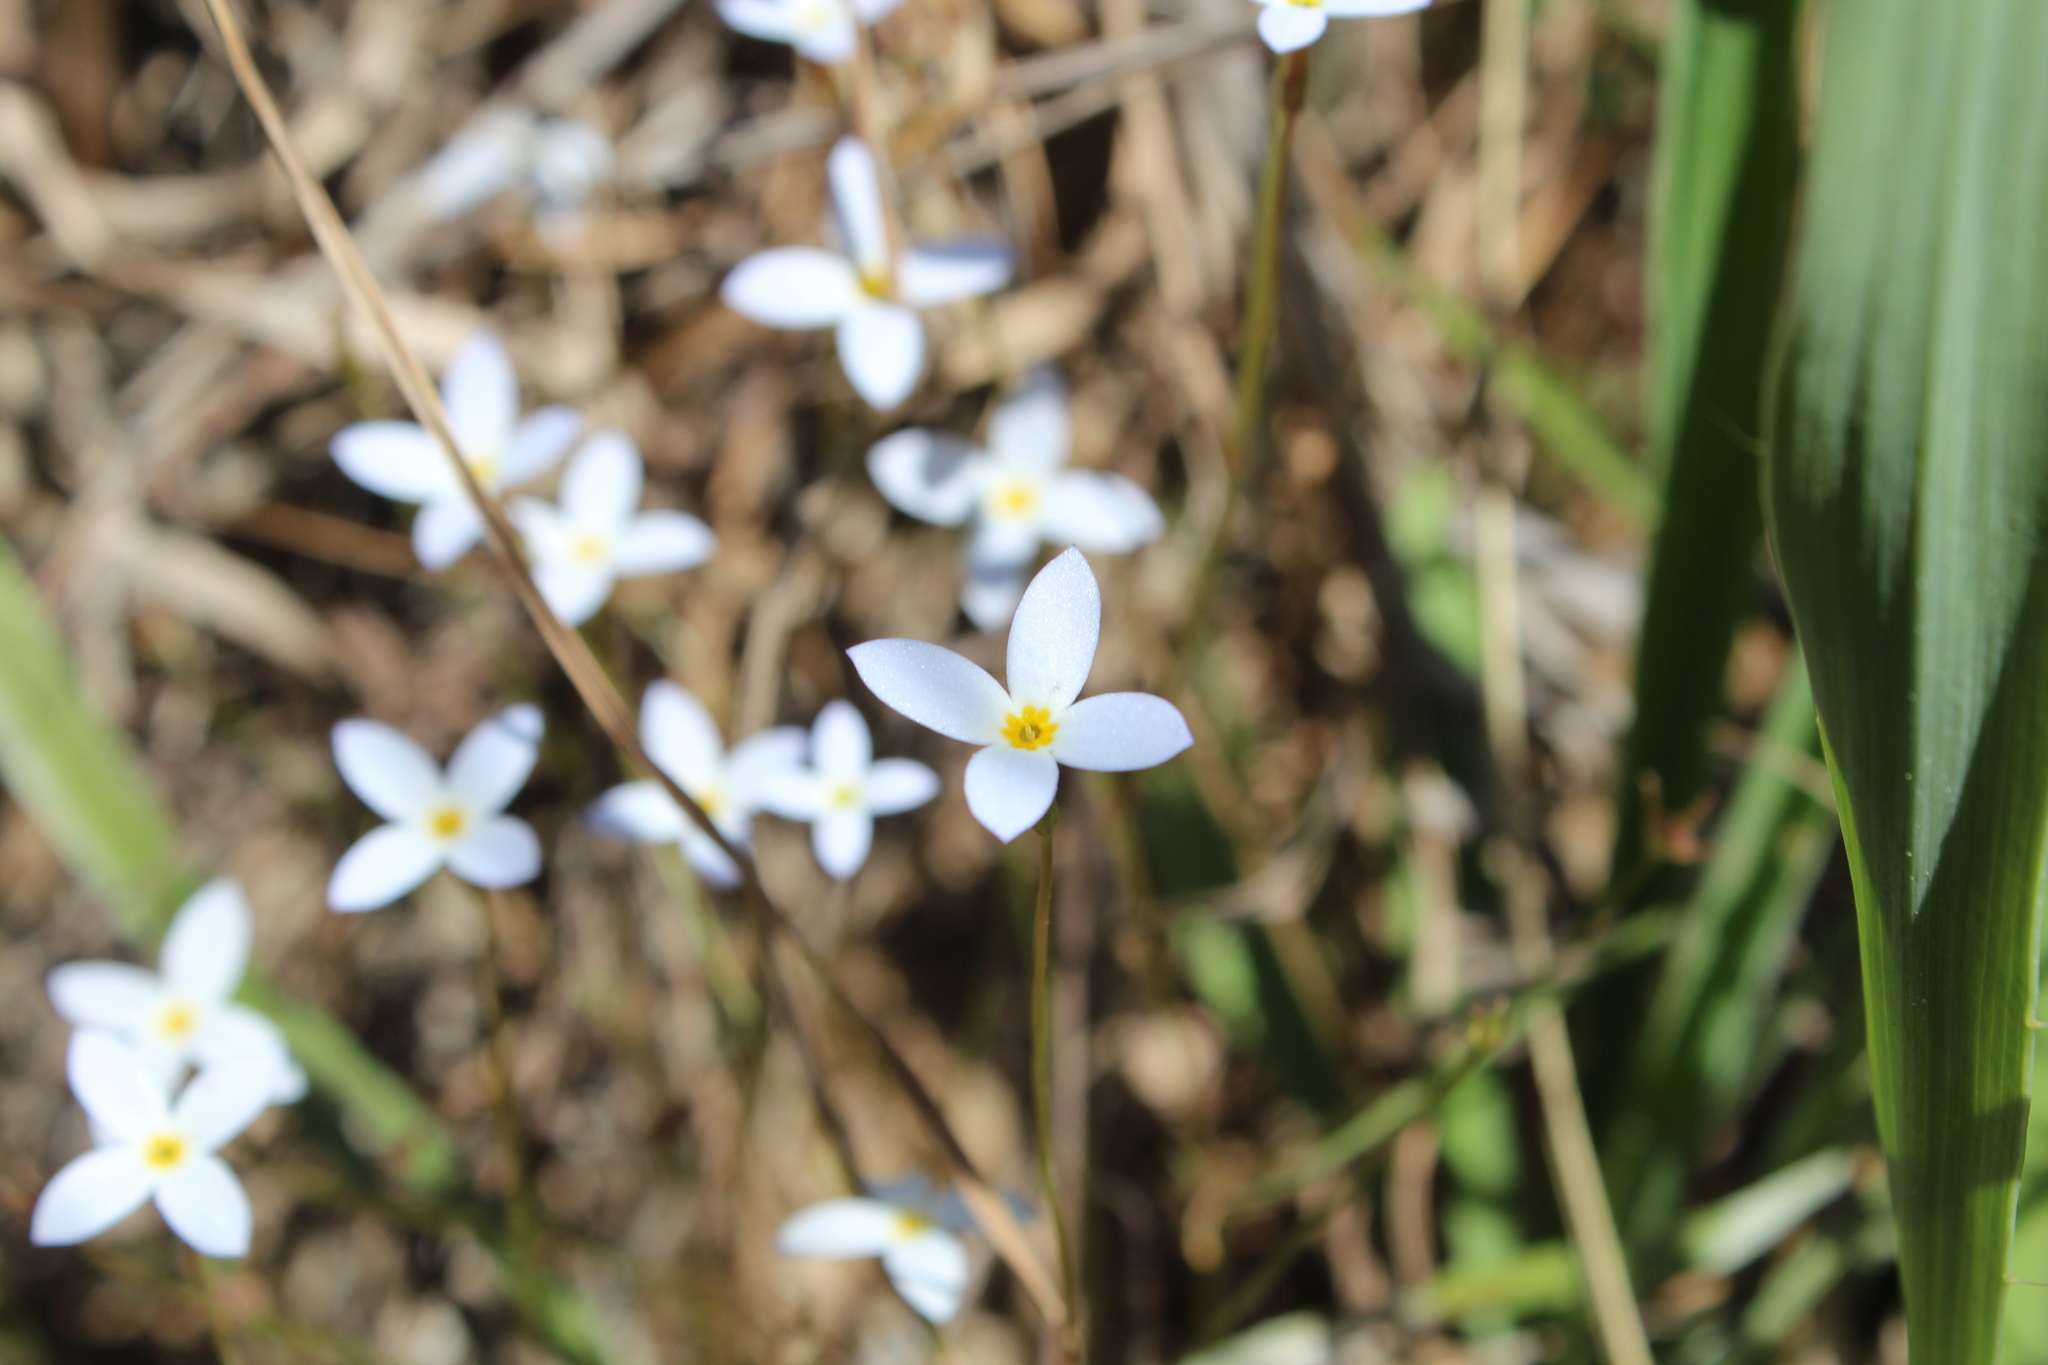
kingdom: Plantae
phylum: Tracheophyta
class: Magnoliopsida
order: Gentianales
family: Rubiaceae
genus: Houstonia
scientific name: Houstonia caerulea
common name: Bluets
